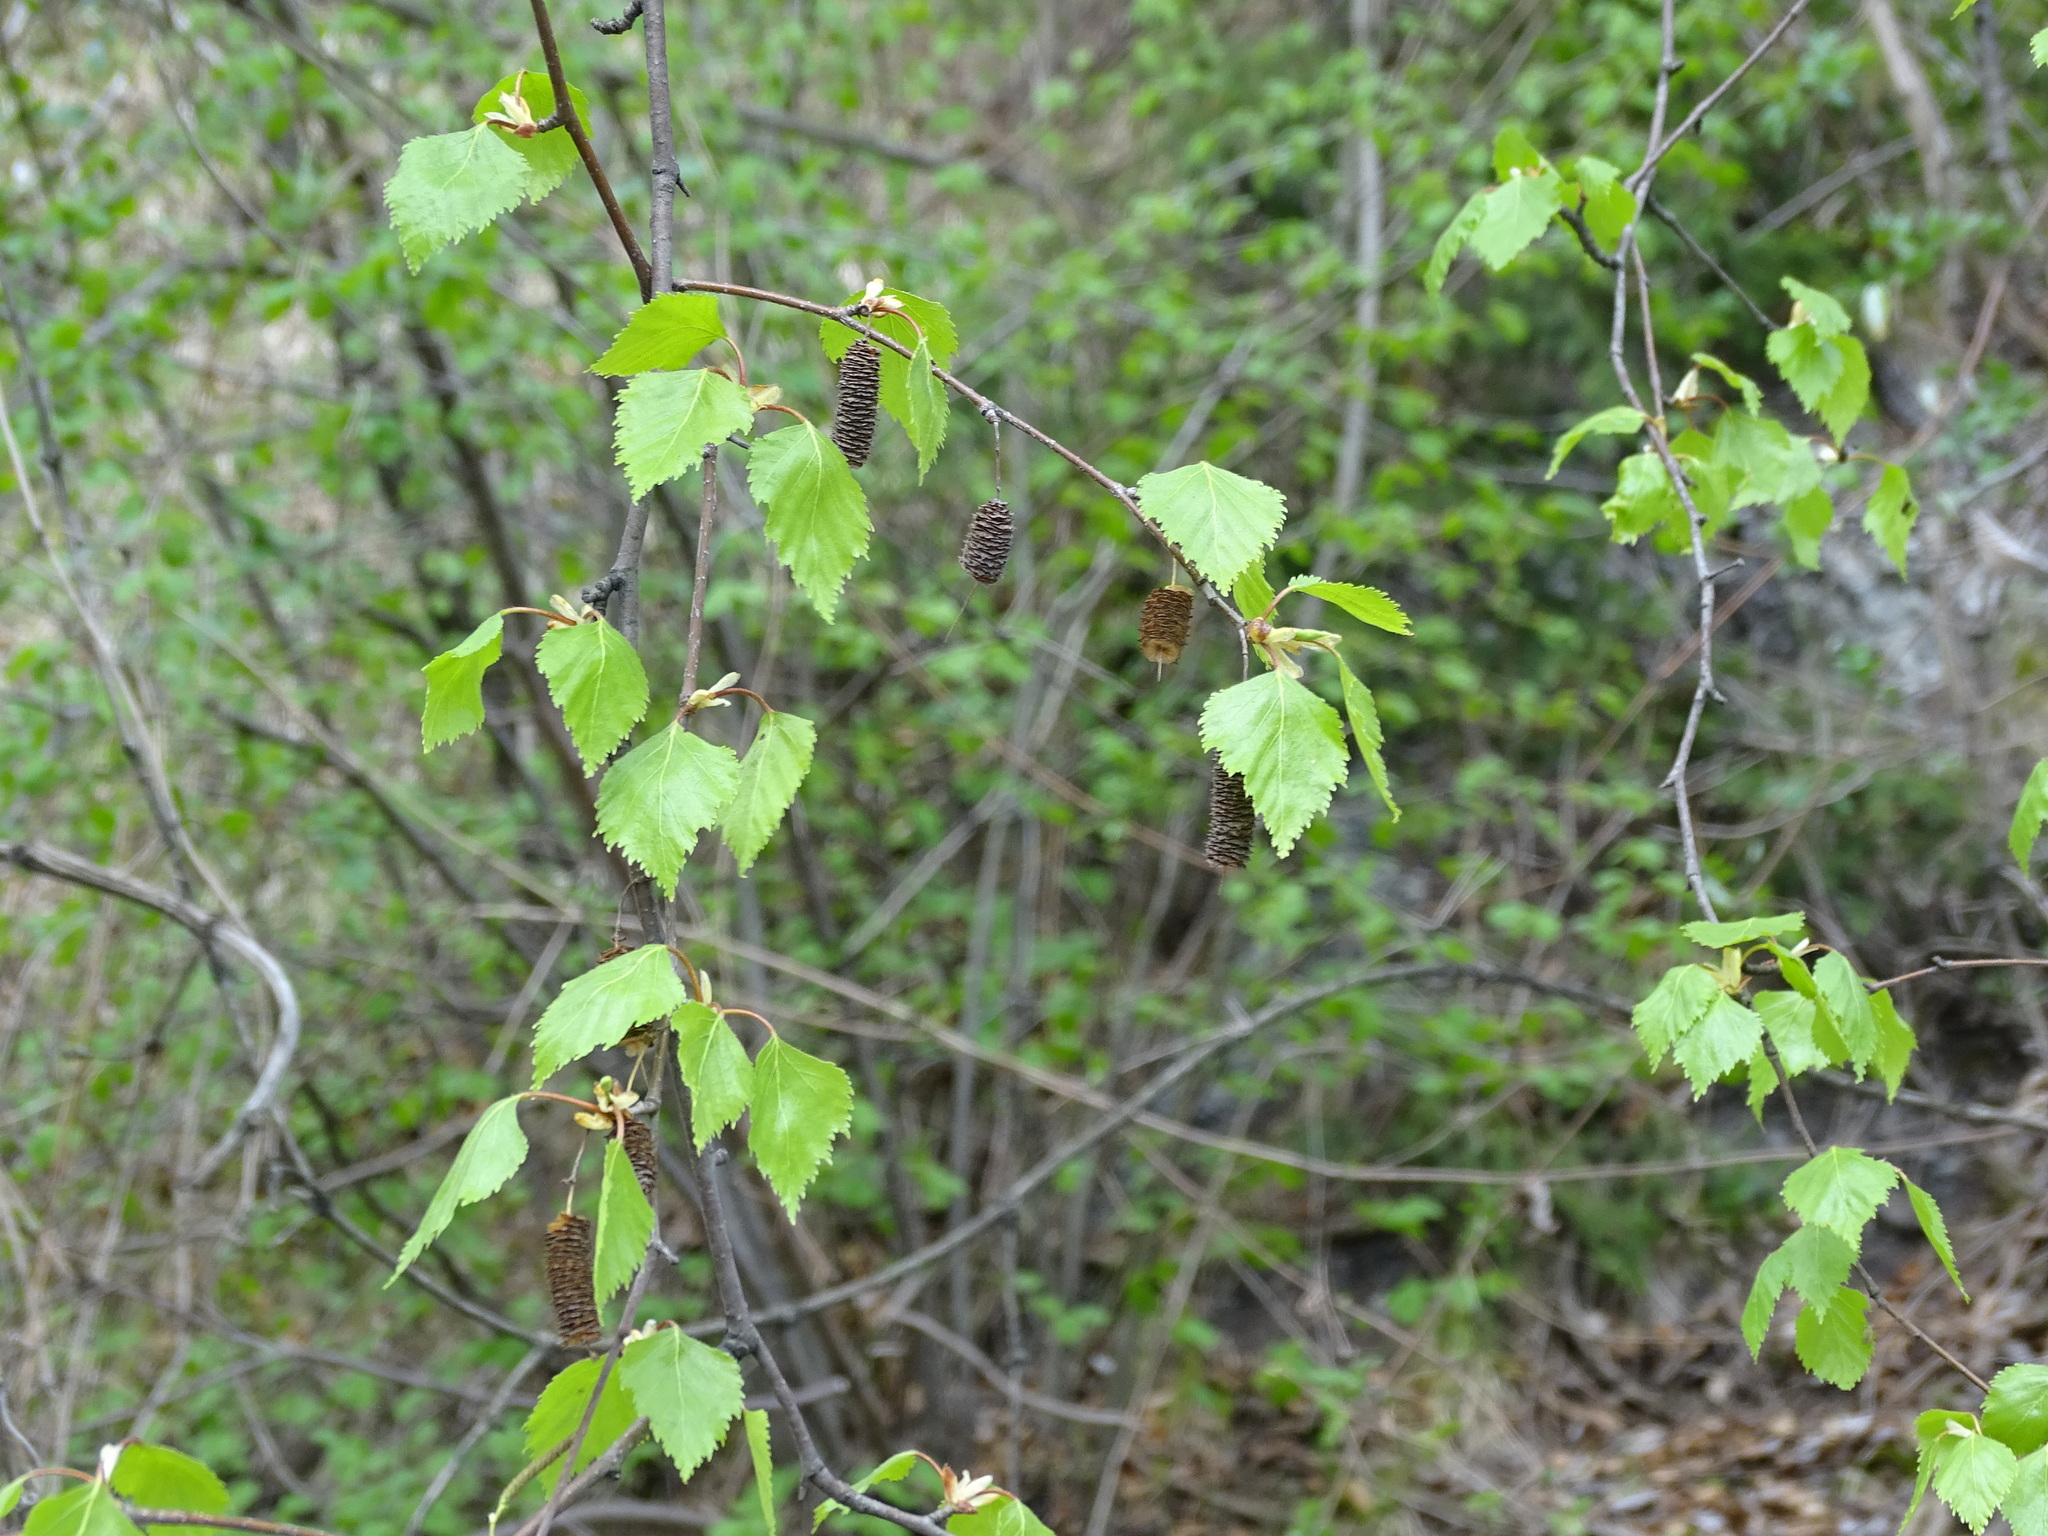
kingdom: Plantae
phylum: Tracheophyta
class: Magnoliopsida
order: Fagales
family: Betulaceae
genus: Betula
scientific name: Betula pendula
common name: Silver birch
